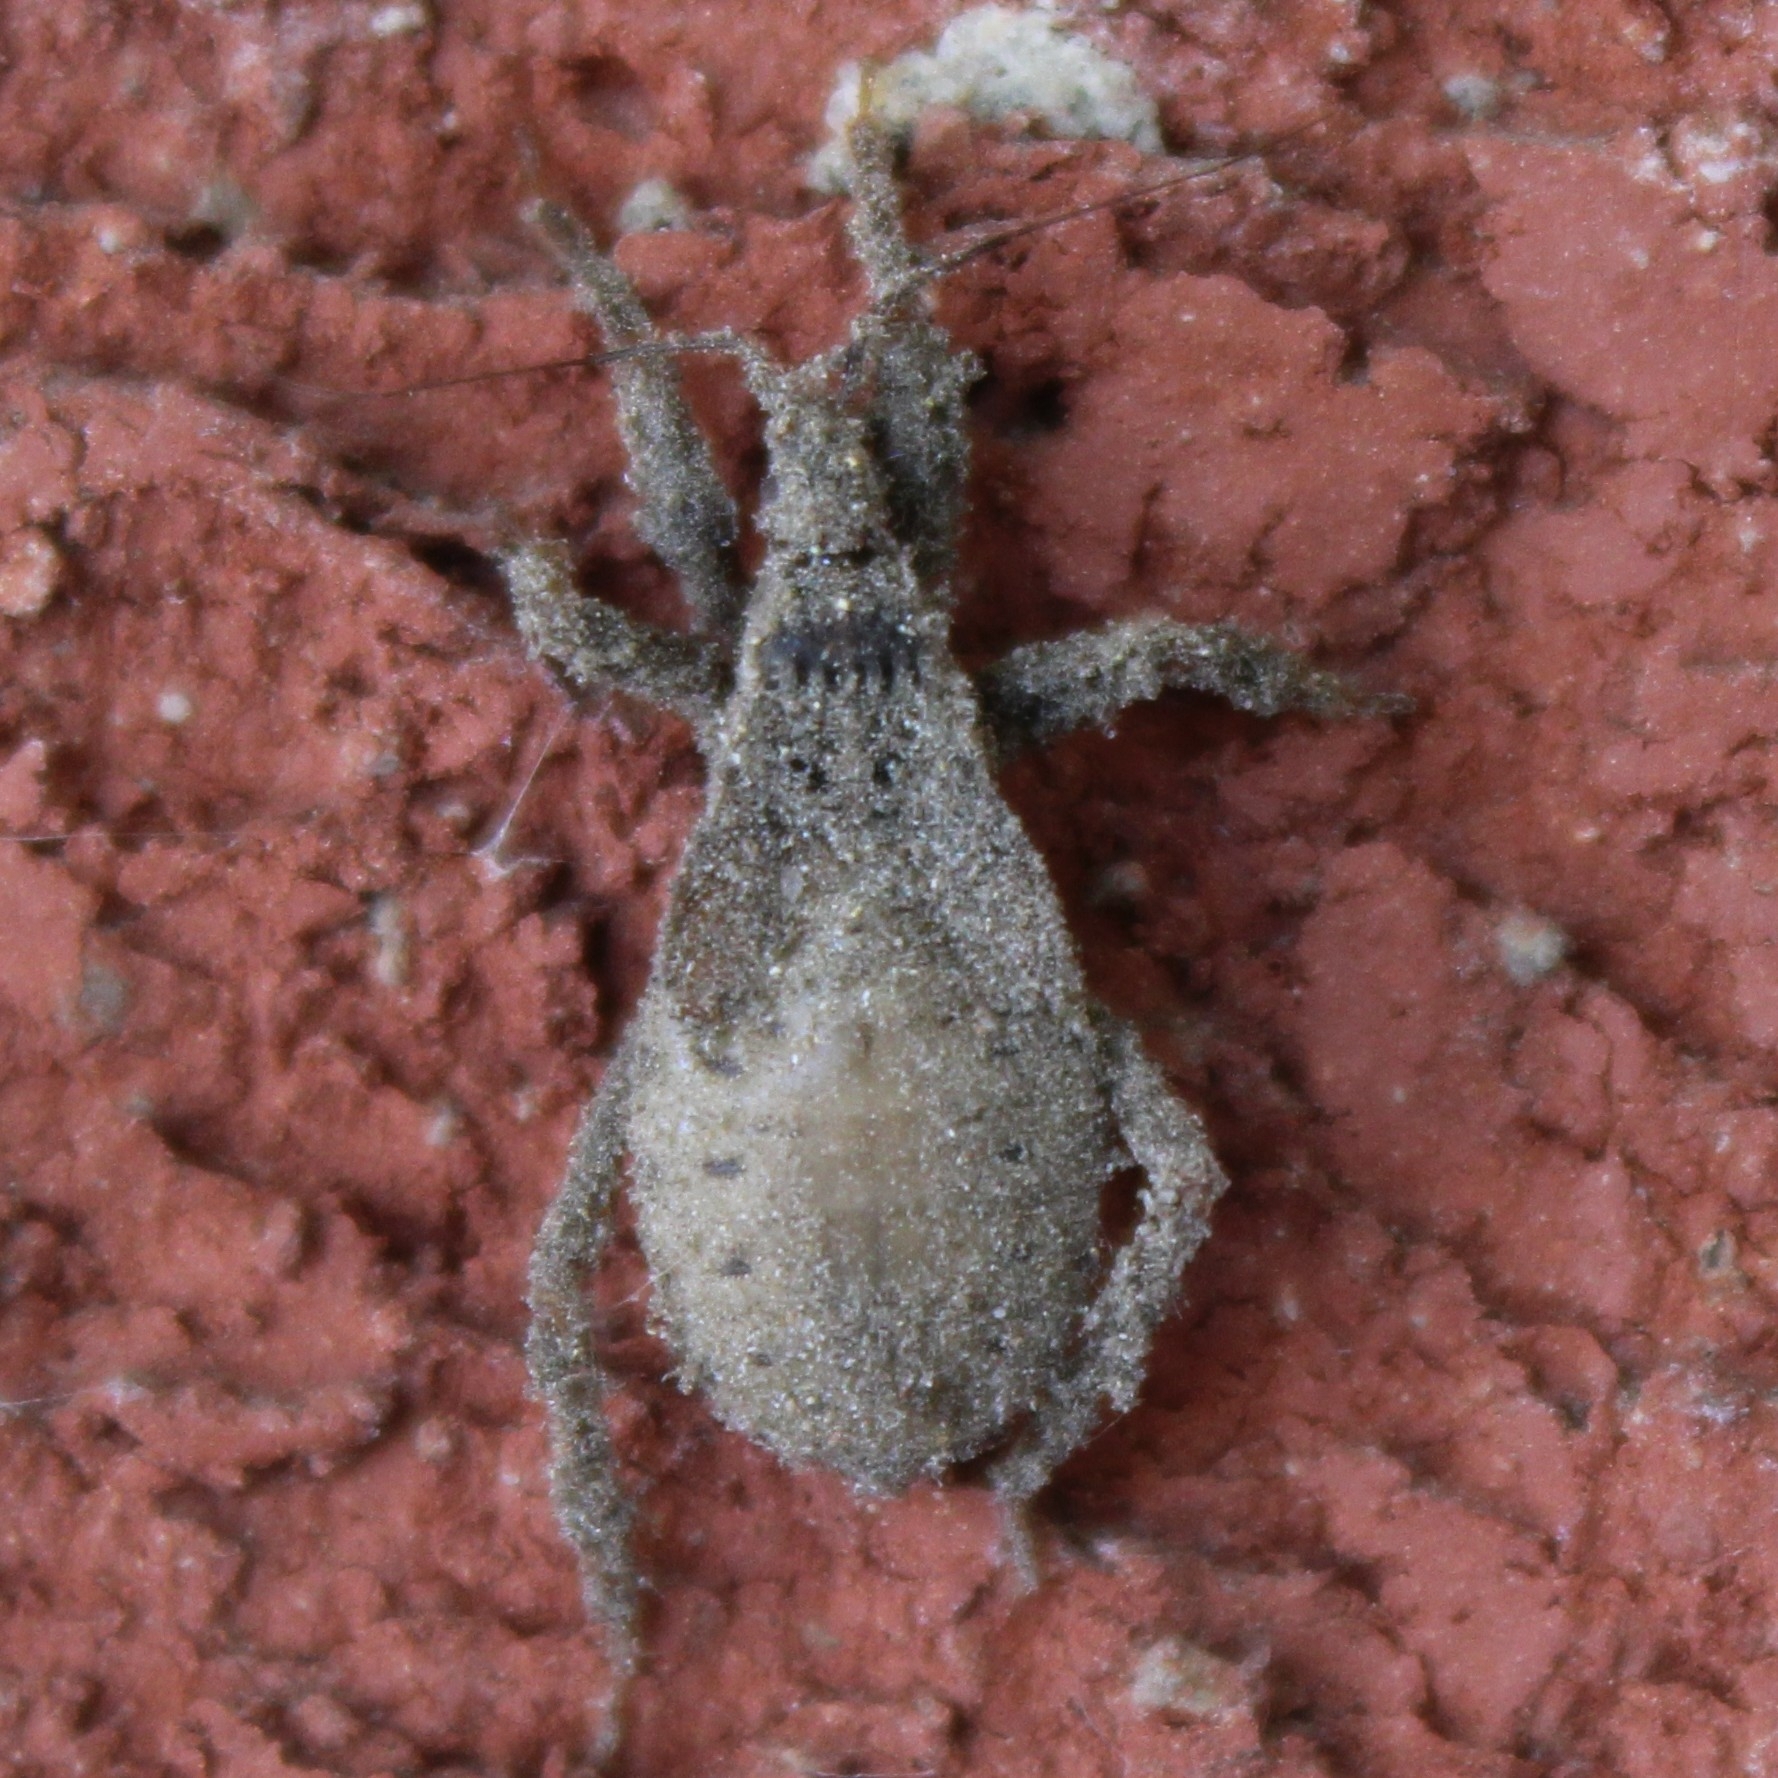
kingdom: Animalia
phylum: Arthropoda
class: Insecta
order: Hemiptera
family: Reduviidae
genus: Reduvius
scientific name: Reduvius personatus
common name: Masked hunter
